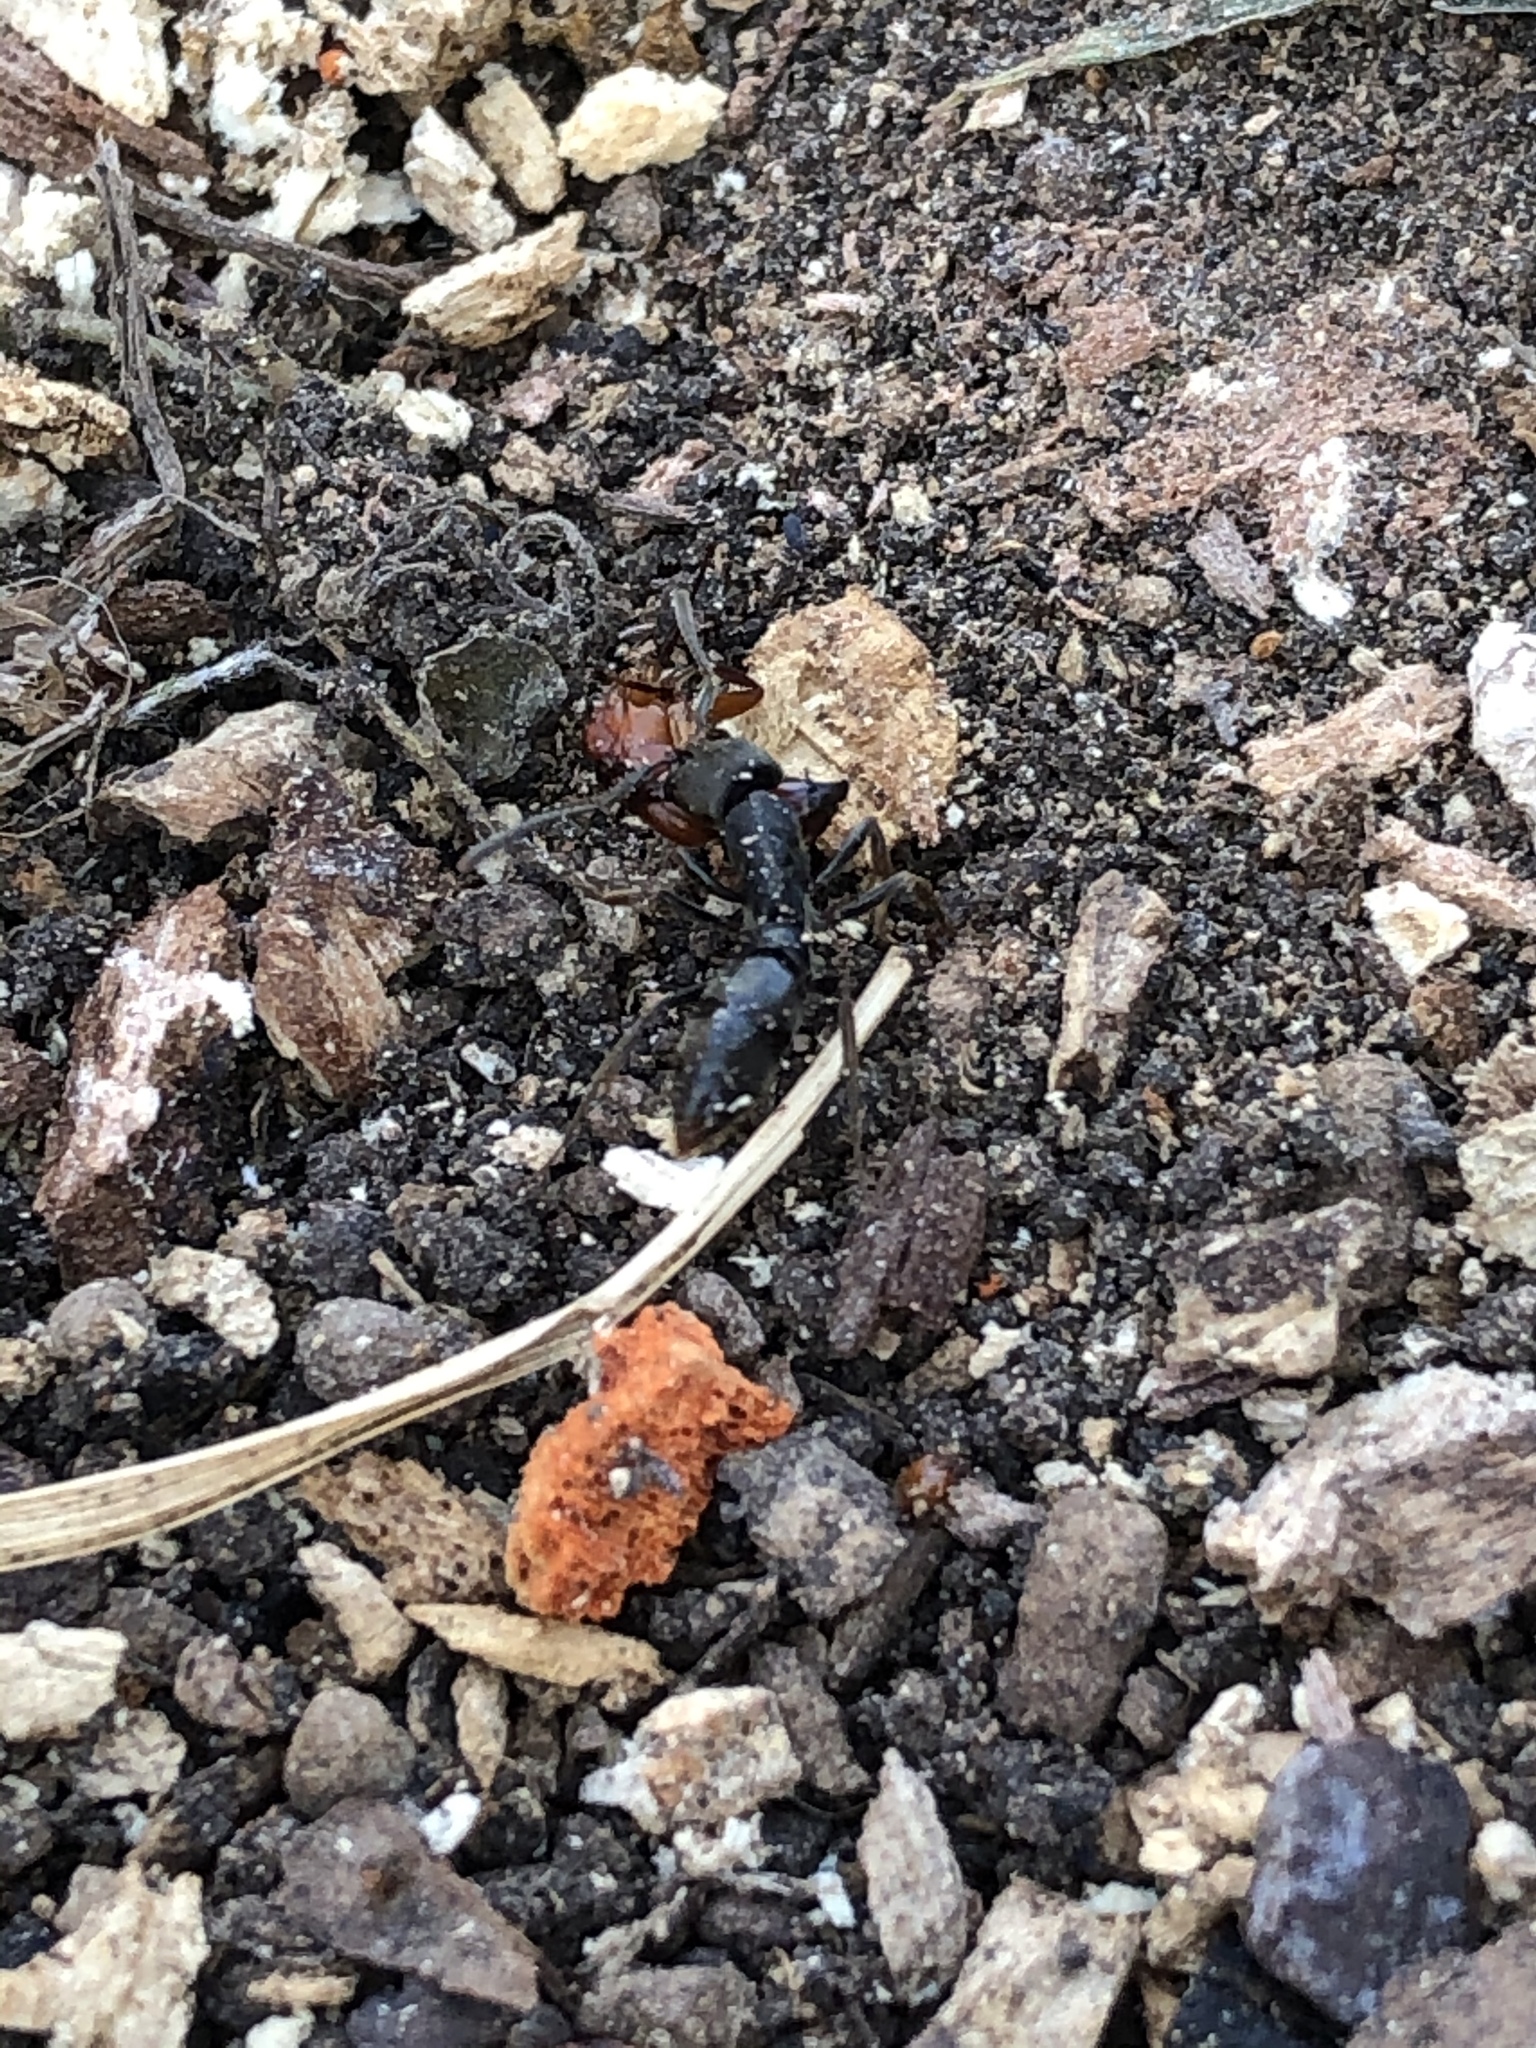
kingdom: Animalia
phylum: Arthropoda
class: Insecta
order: Hymenoptera
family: Formicidae
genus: Pachycondyla
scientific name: Pachycondyla harpax
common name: Ant
